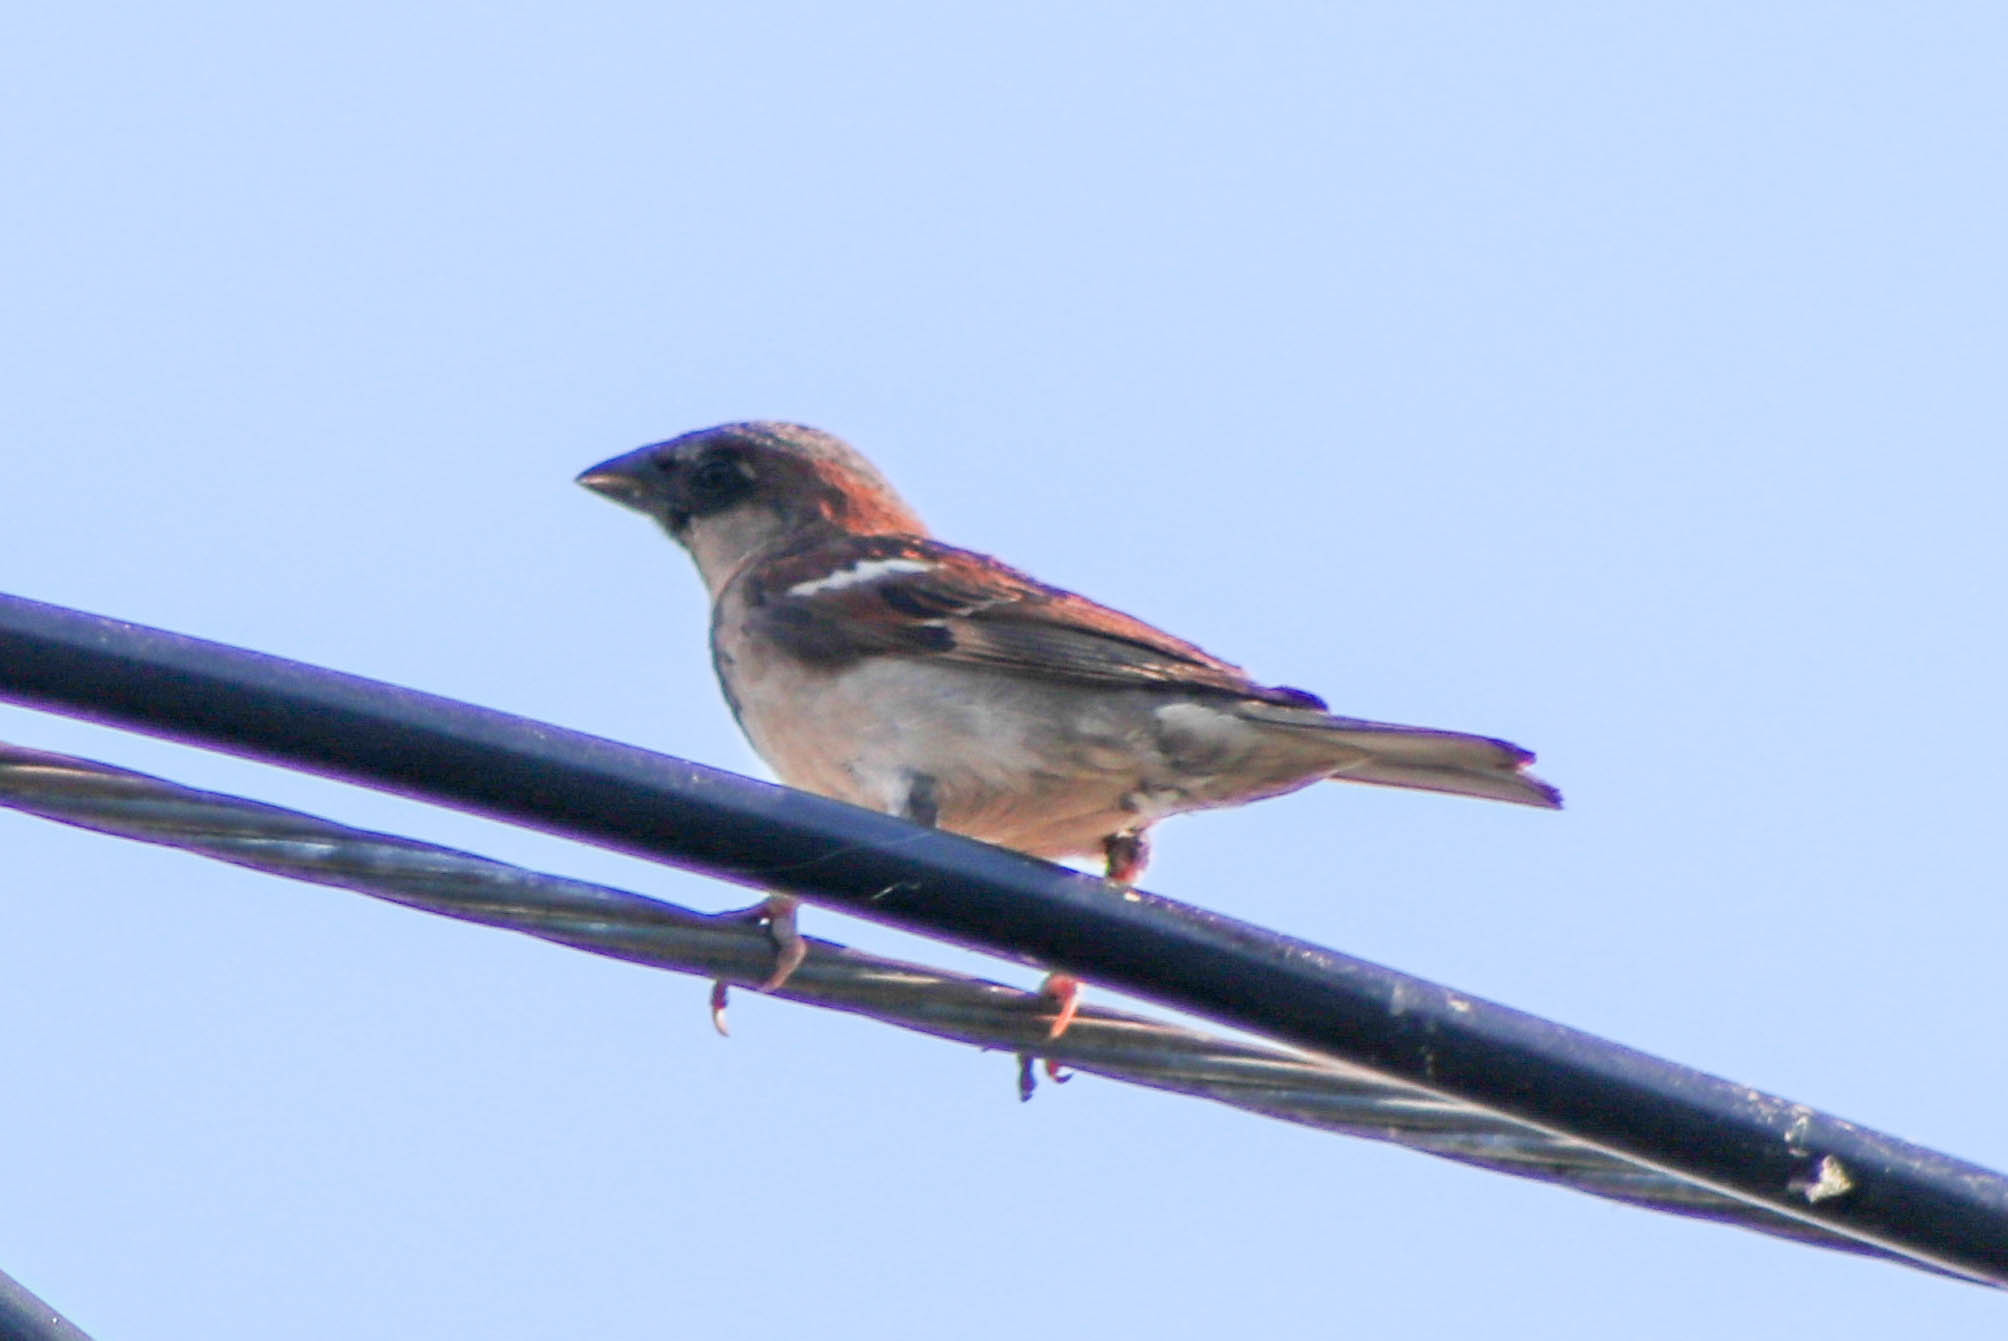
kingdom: Animalia
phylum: Chordata
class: Aves
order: Passeriformes
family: Passeridae
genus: Passer
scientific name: Passer domesticus
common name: House sparrow
